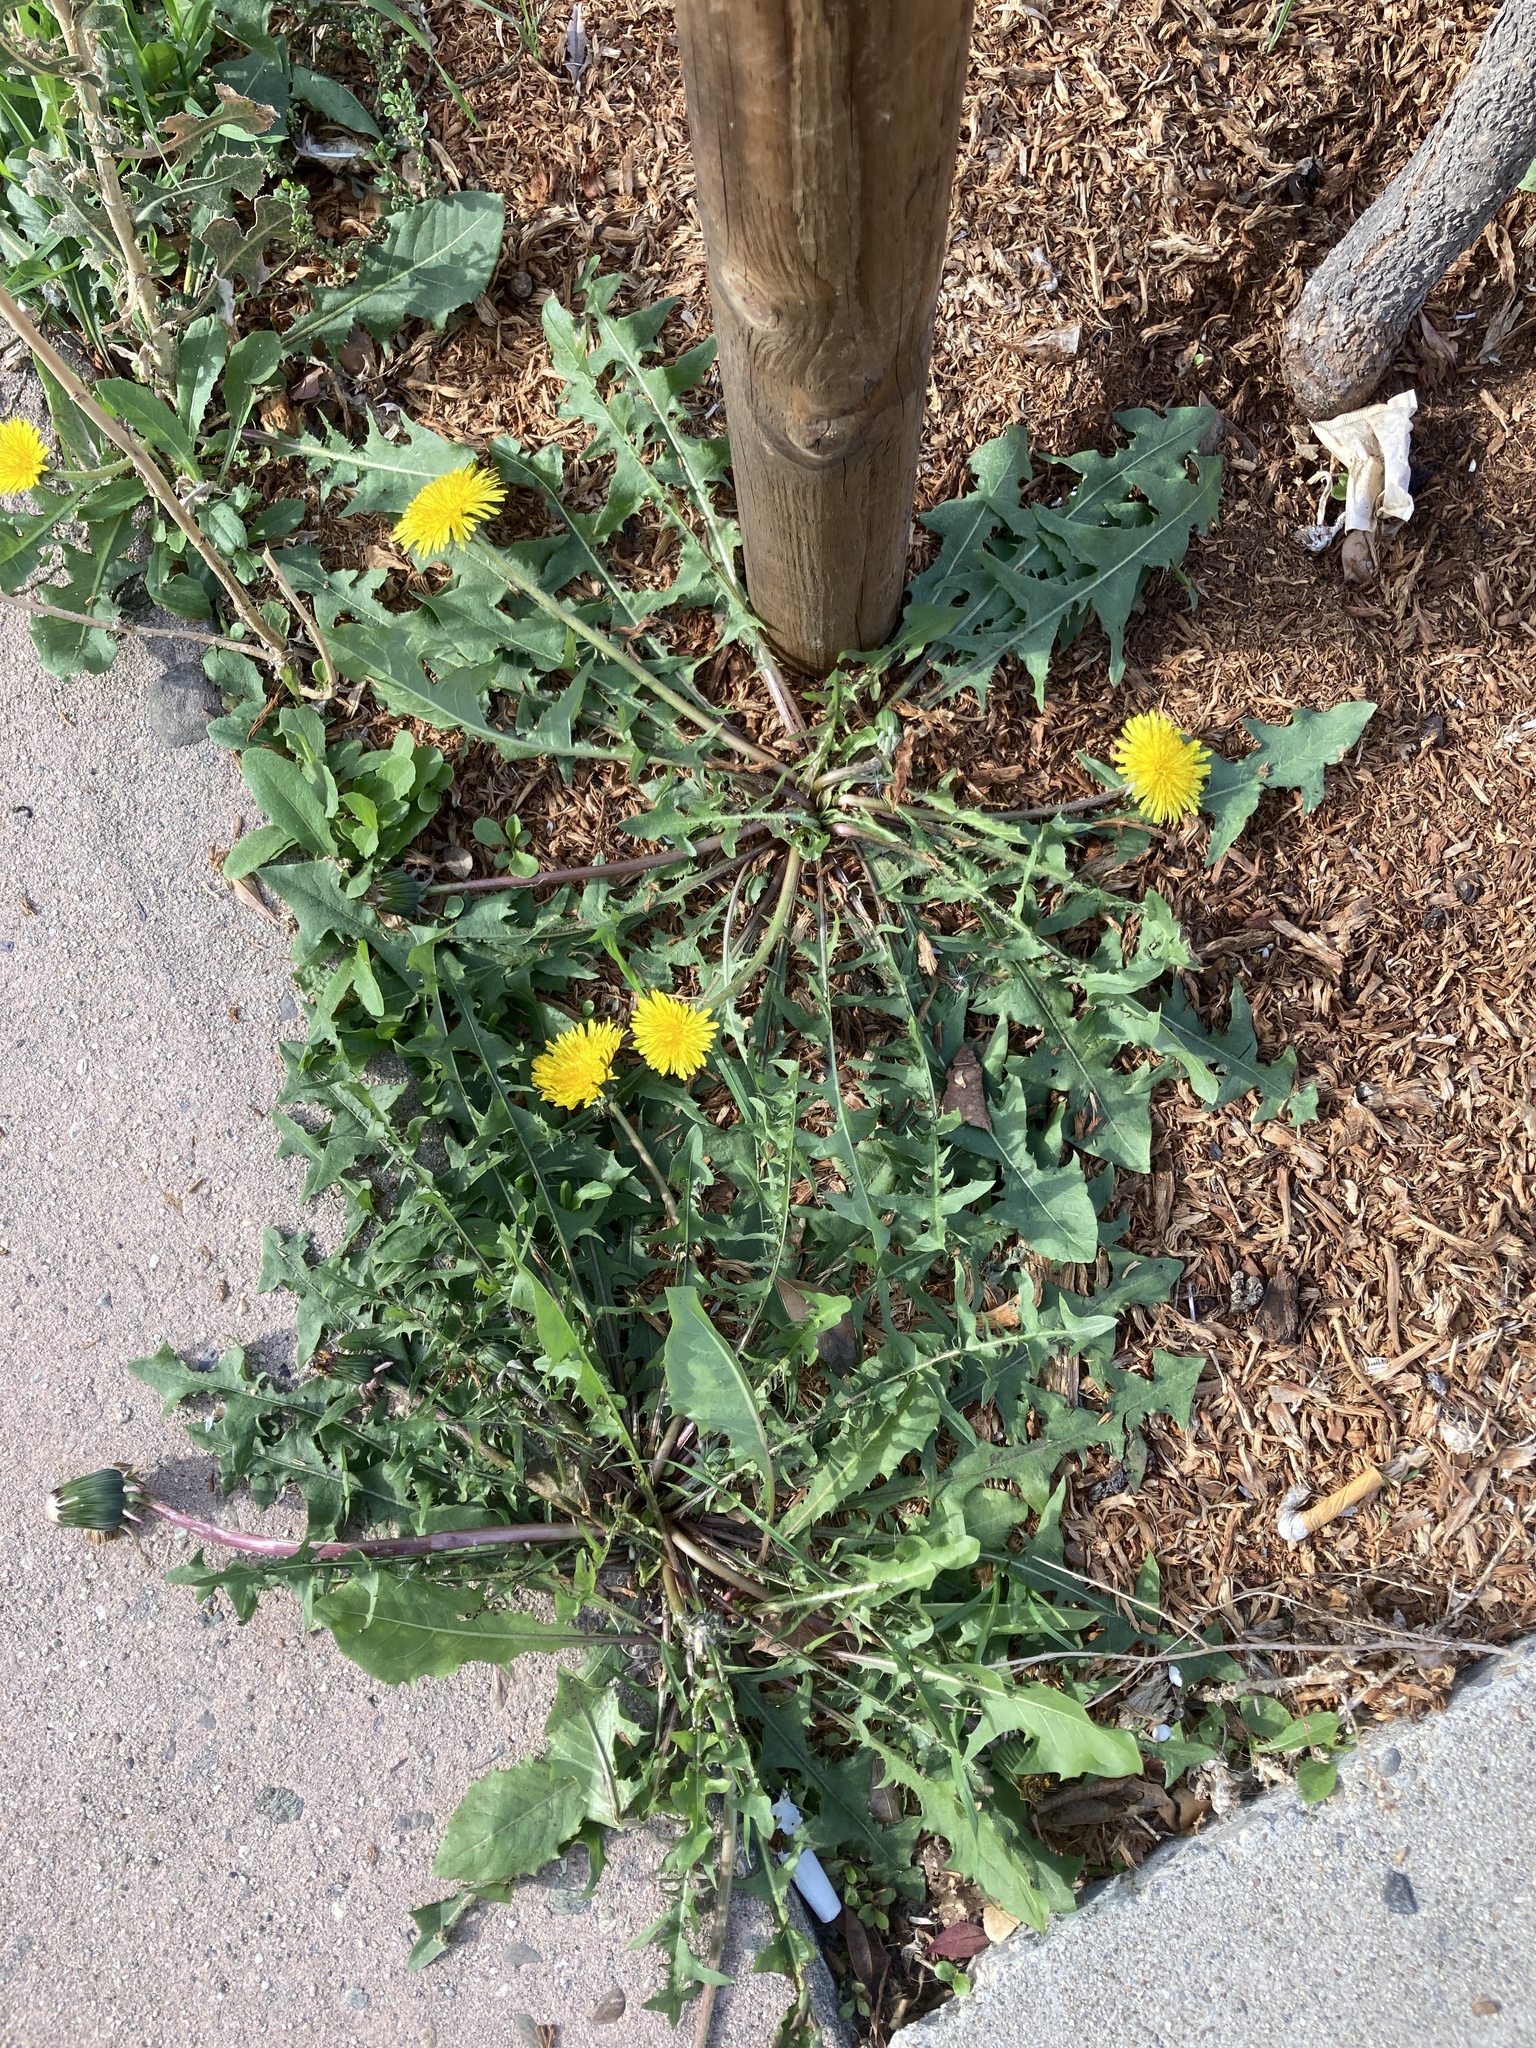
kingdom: Plantae
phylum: Tracheophyta
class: Magnoliopsida
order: Asterales
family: Asteraceae
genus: Taraxacum
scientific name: Taraxacum officinale
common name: Common dandelion
